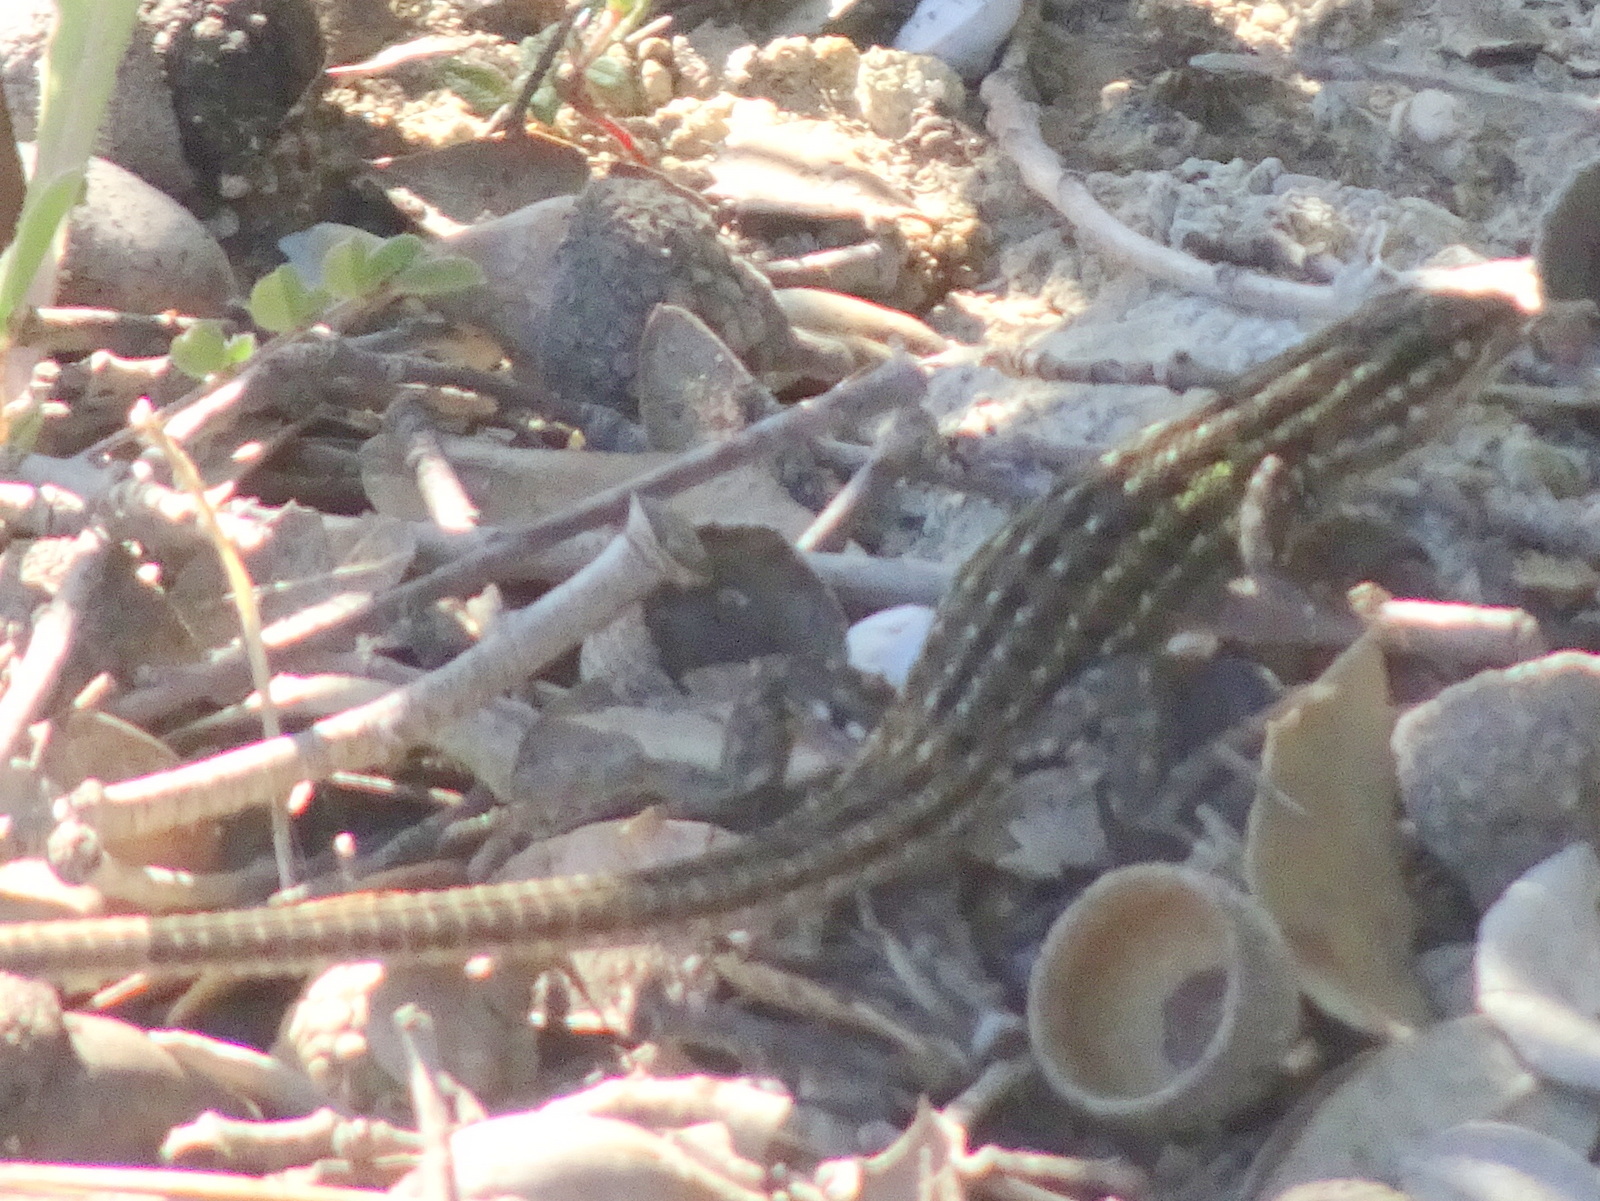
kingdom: Animalia
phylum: Chordata
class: Squamata
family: Lacertidae
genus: Psammodromus
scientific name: Psammodromus edwarsianus
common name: East iberian psammodromus
